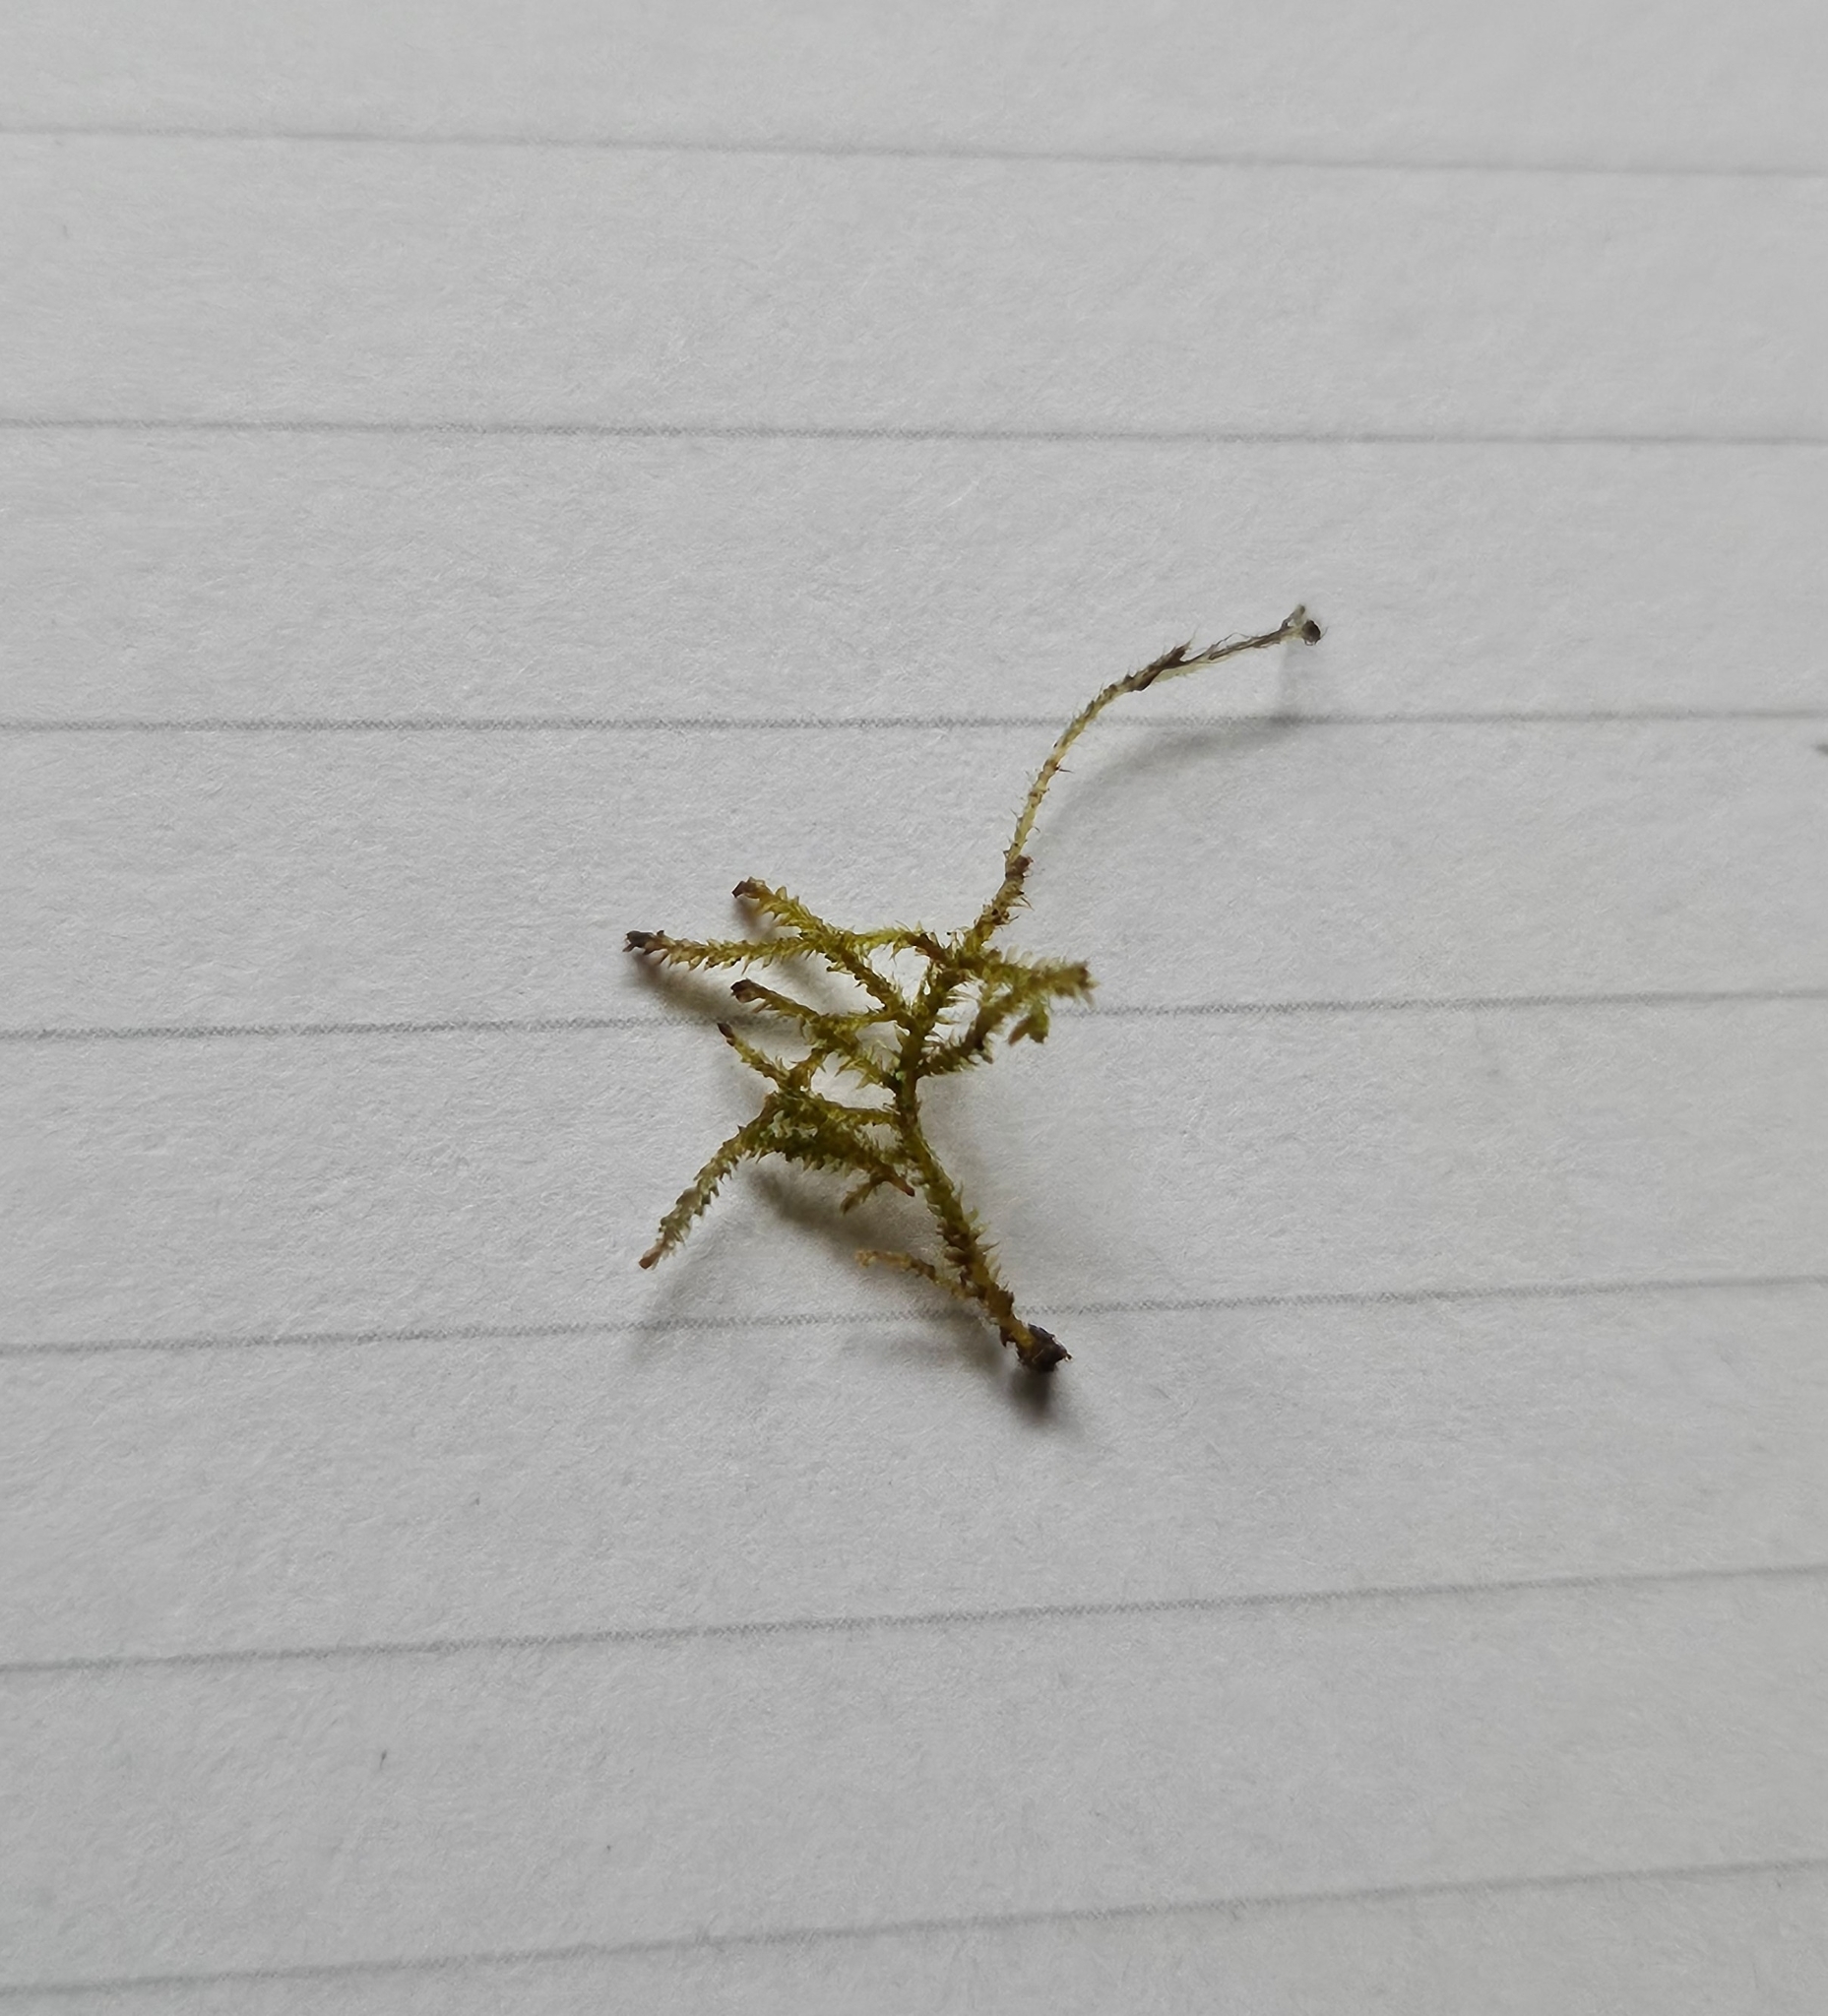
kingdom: Plantae
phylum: Bryophyta
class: Bryopsida
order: Hypnales
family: Lembophyllaceae
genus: Heterocladium
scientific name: Heterocladium heteropterum
